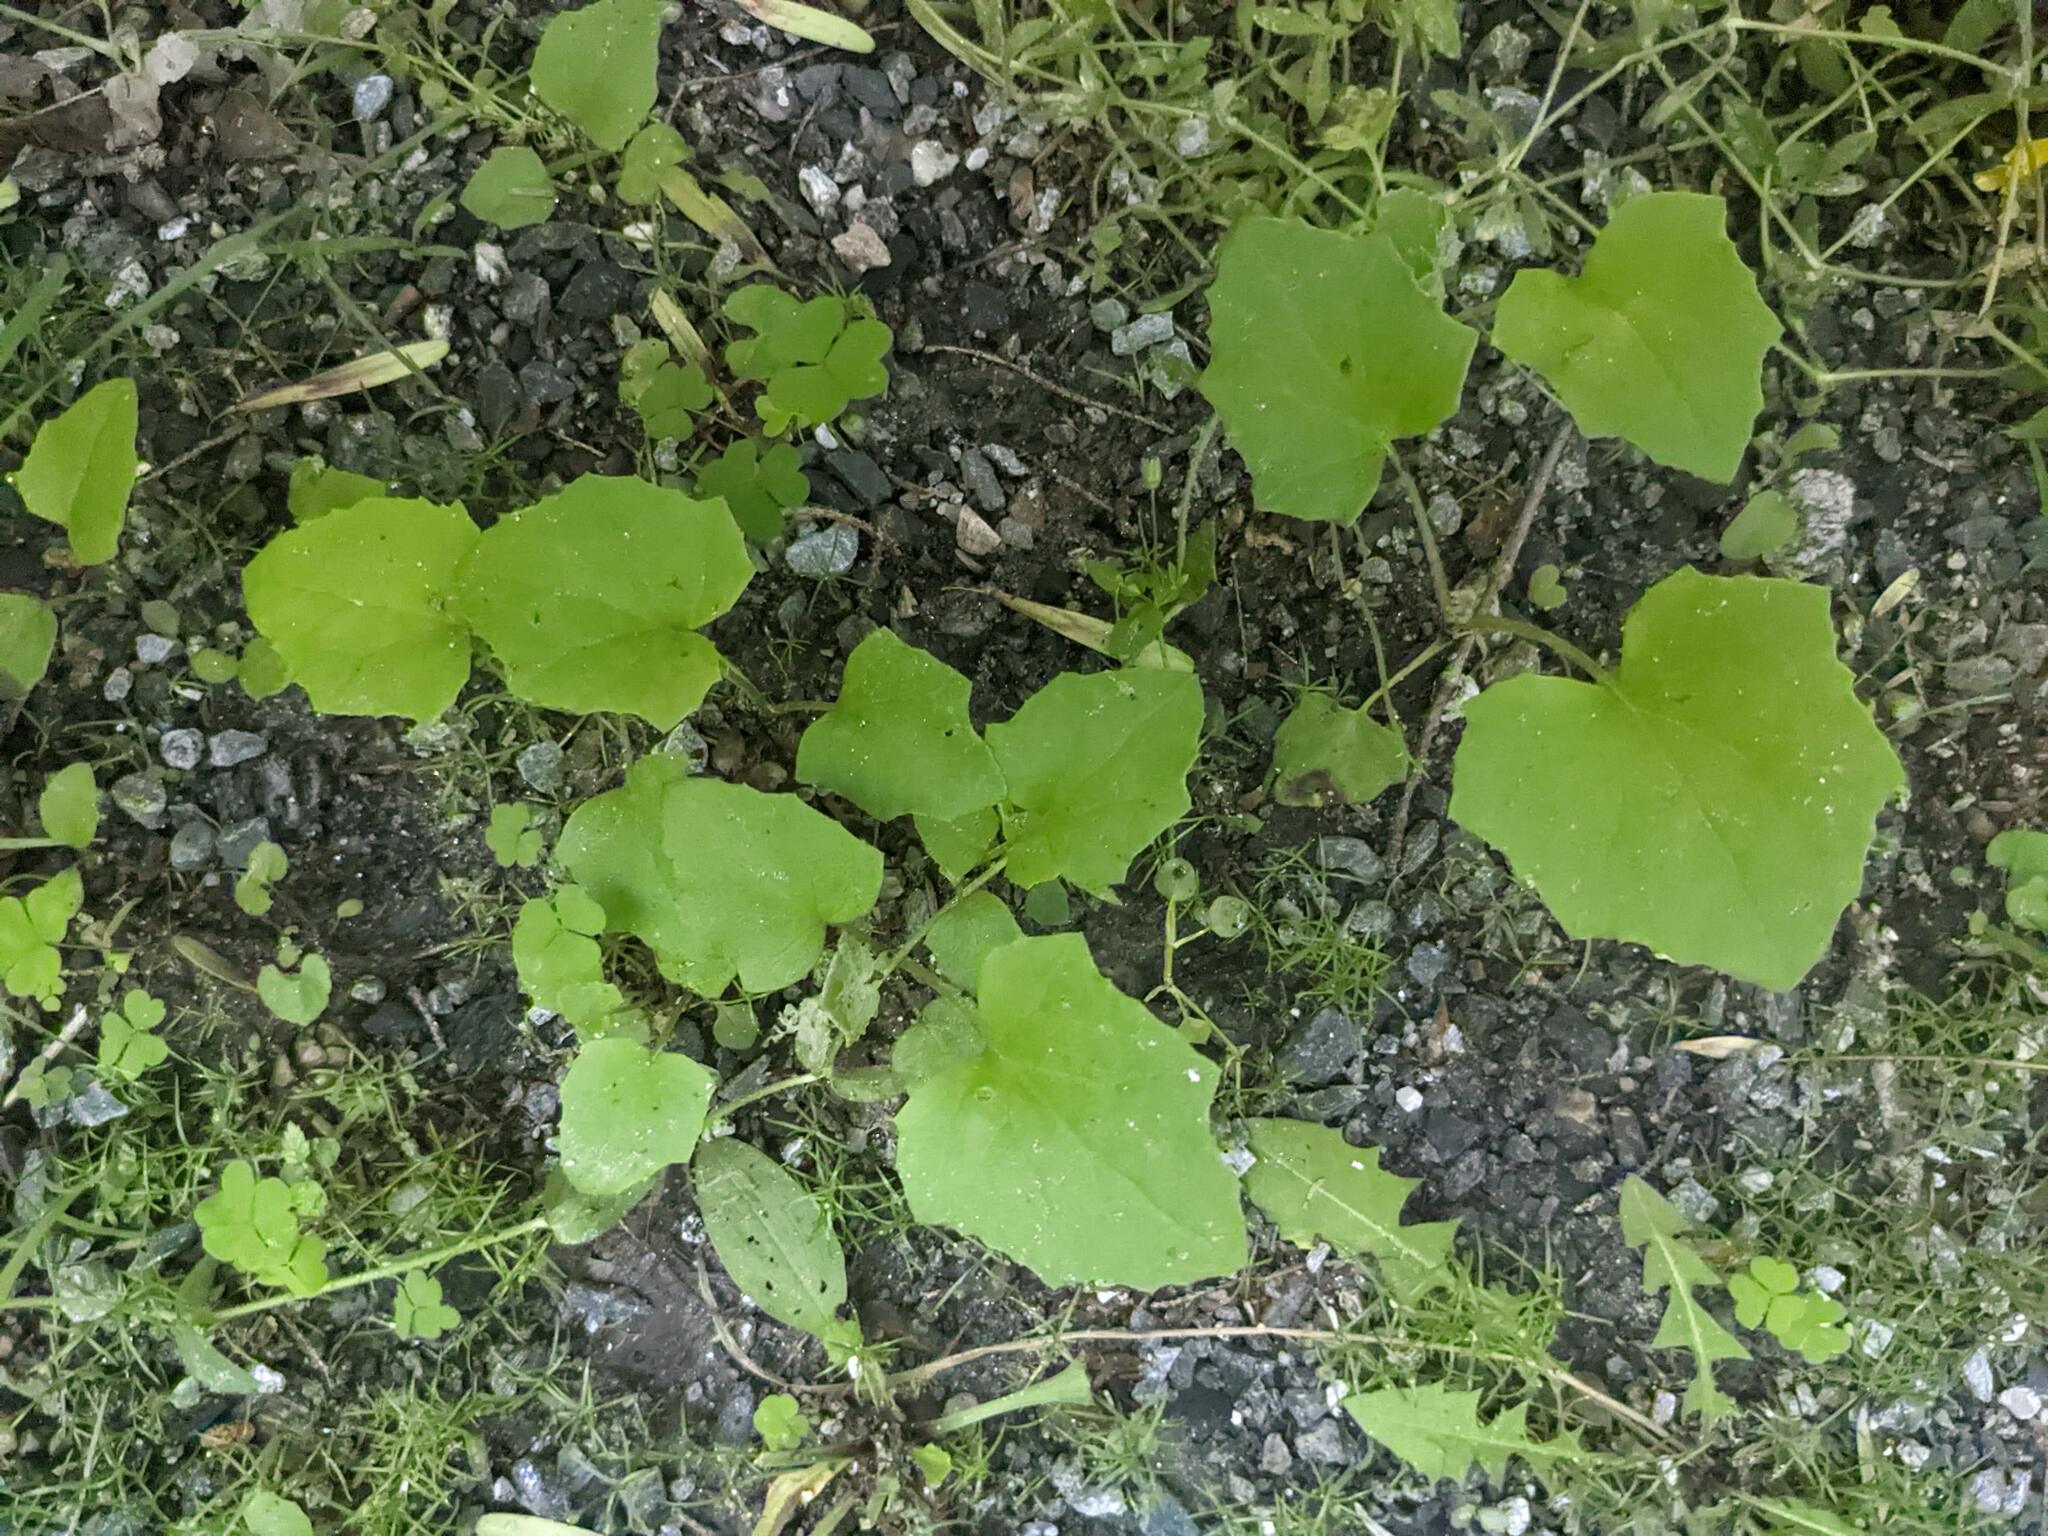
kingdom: Plantae
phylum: Tracheophyta
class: Magnoliopsida
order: Asterales
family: Asteraceae
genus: Tussilago
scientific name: Tussilago farfara
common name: Coltsfoot
